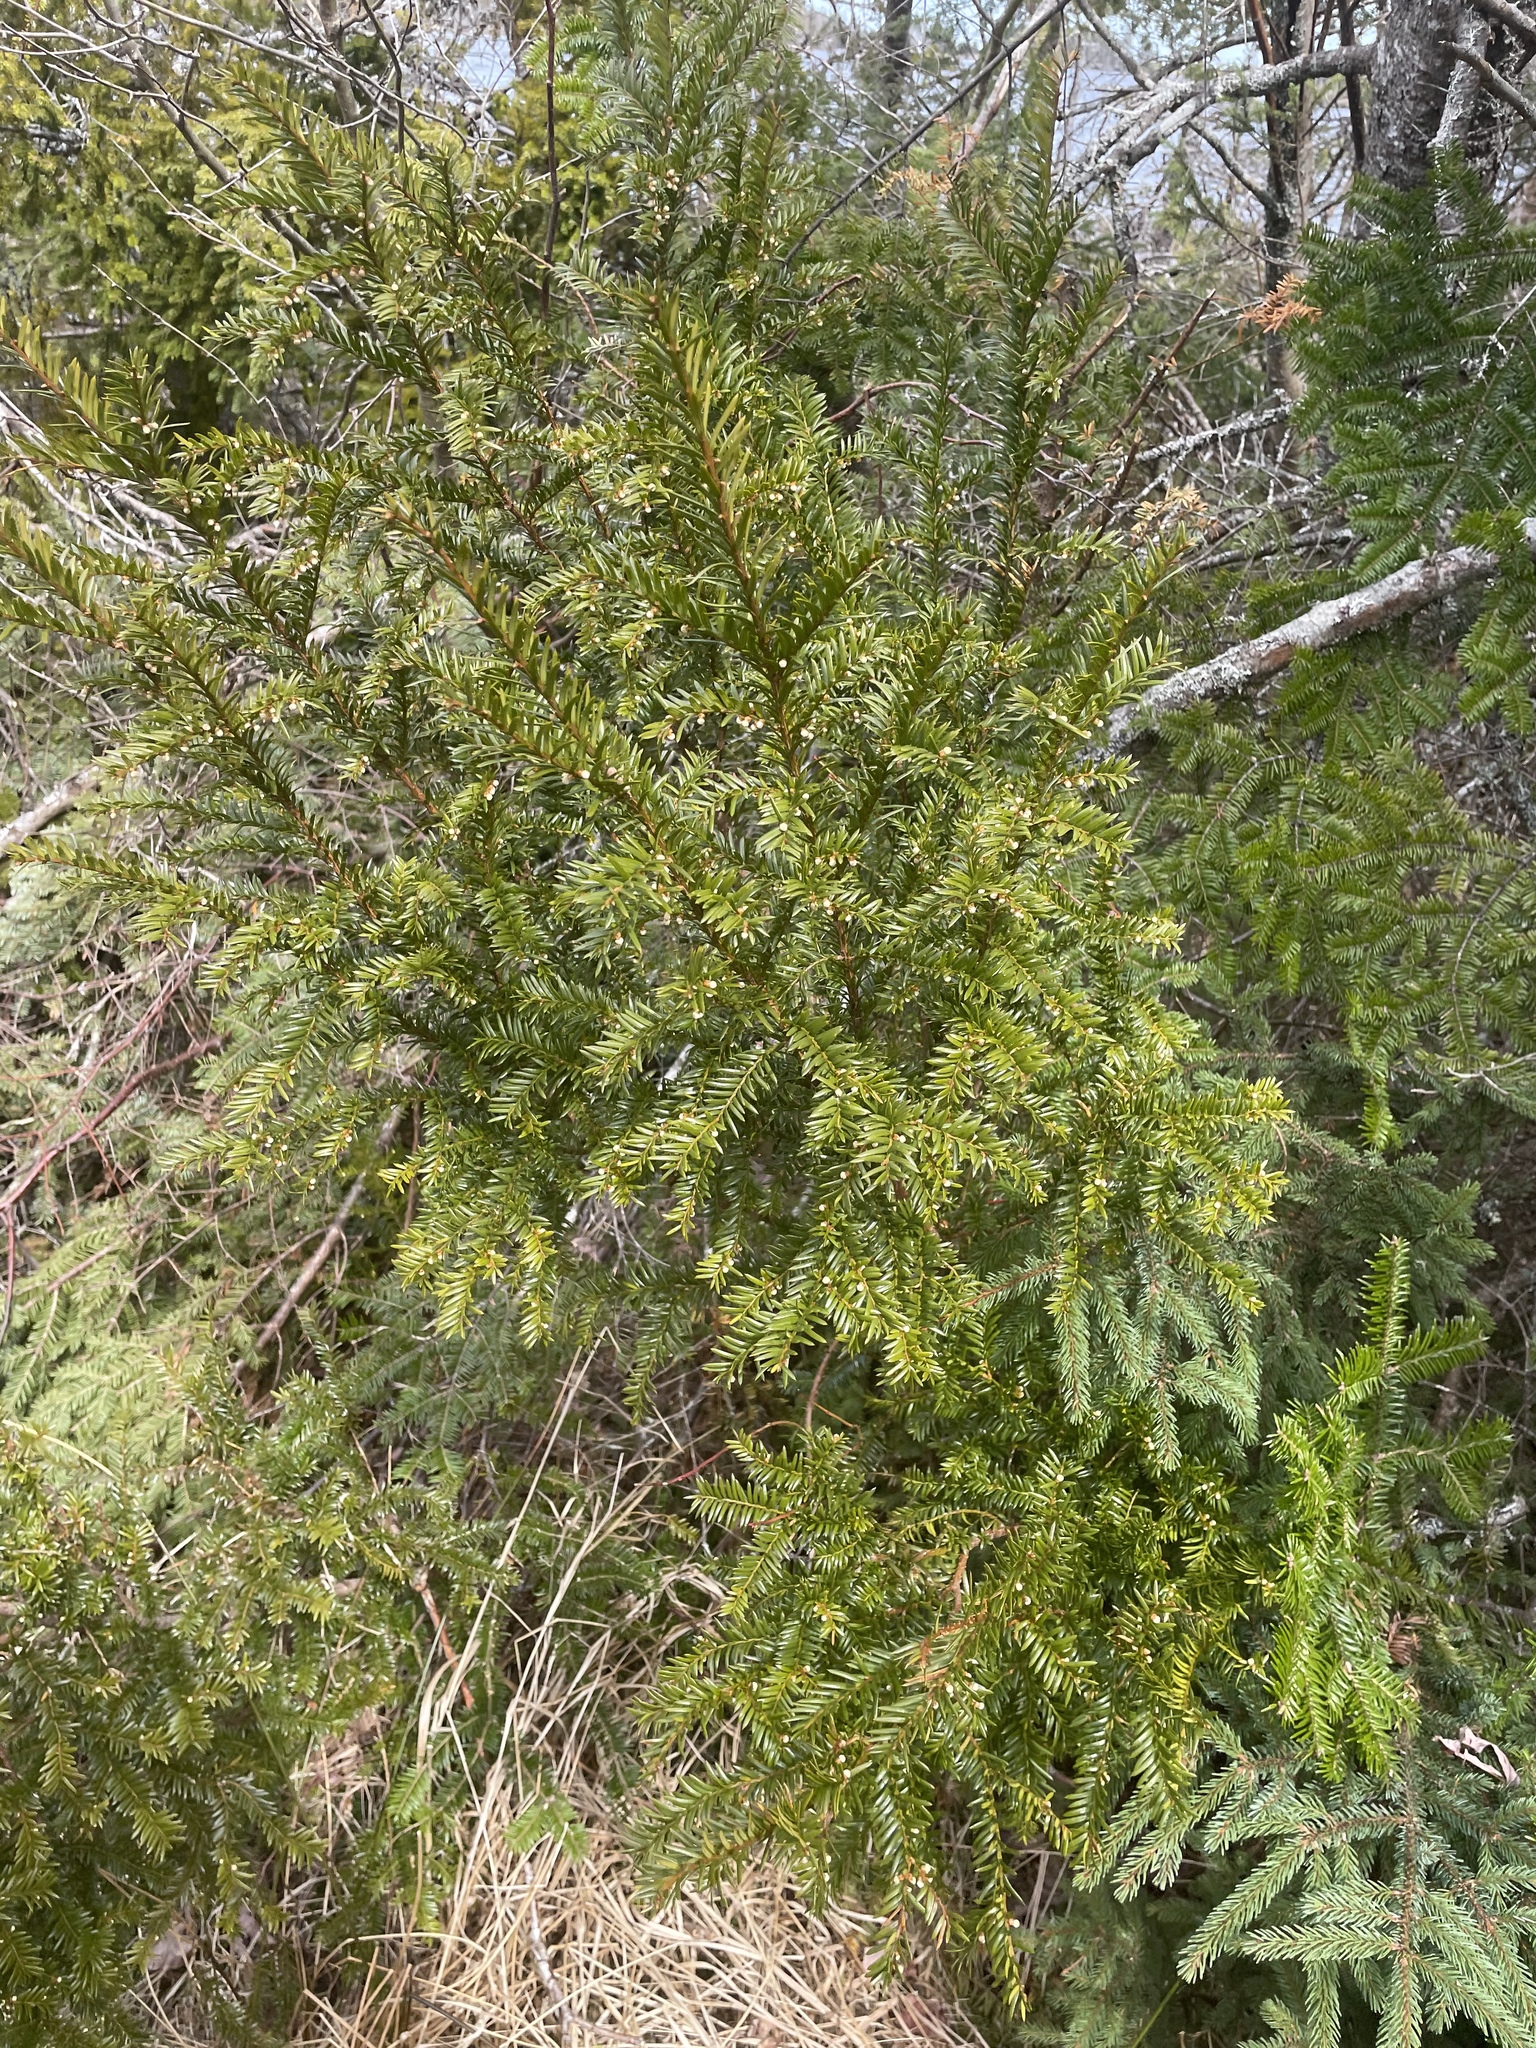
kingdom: Plantae
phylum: Tracheophyta
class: Pinopsida
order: Pinales
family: Taxaceae
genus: Taxus
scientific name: Taxus canadensis
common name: American yew
